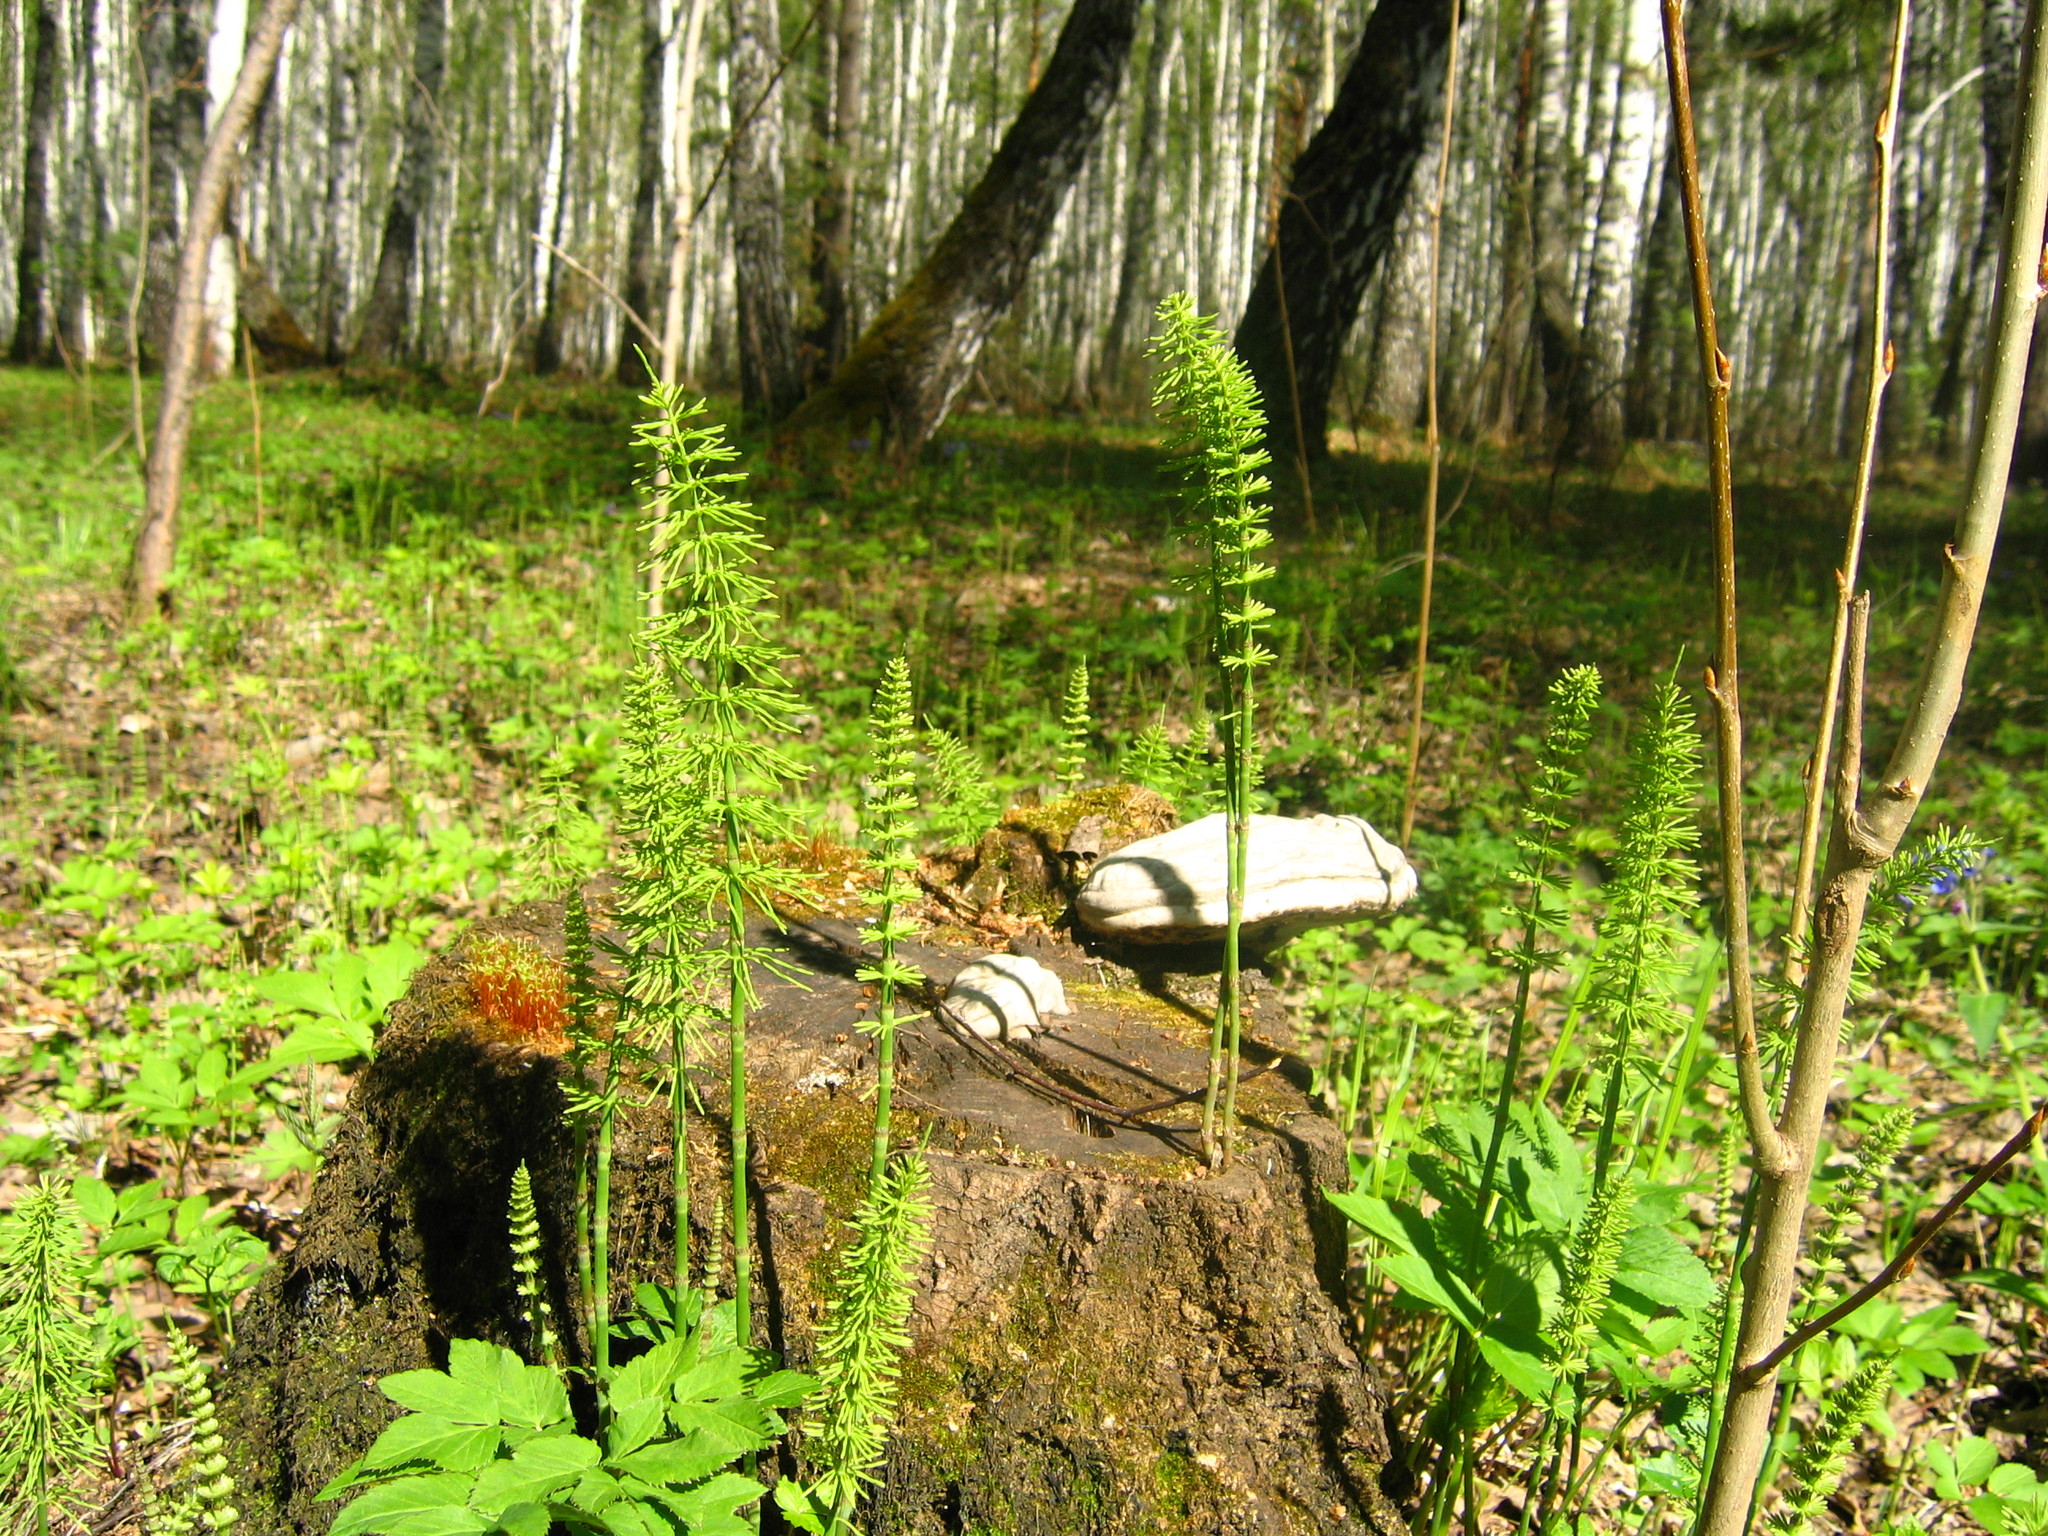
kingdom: Plantae
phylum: Tracheophyta
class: Polypodiopsida
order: Equisetales
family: Equisetaceae
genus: Equisetum
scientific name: Equisetum pratense
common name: Meadow horsetail
